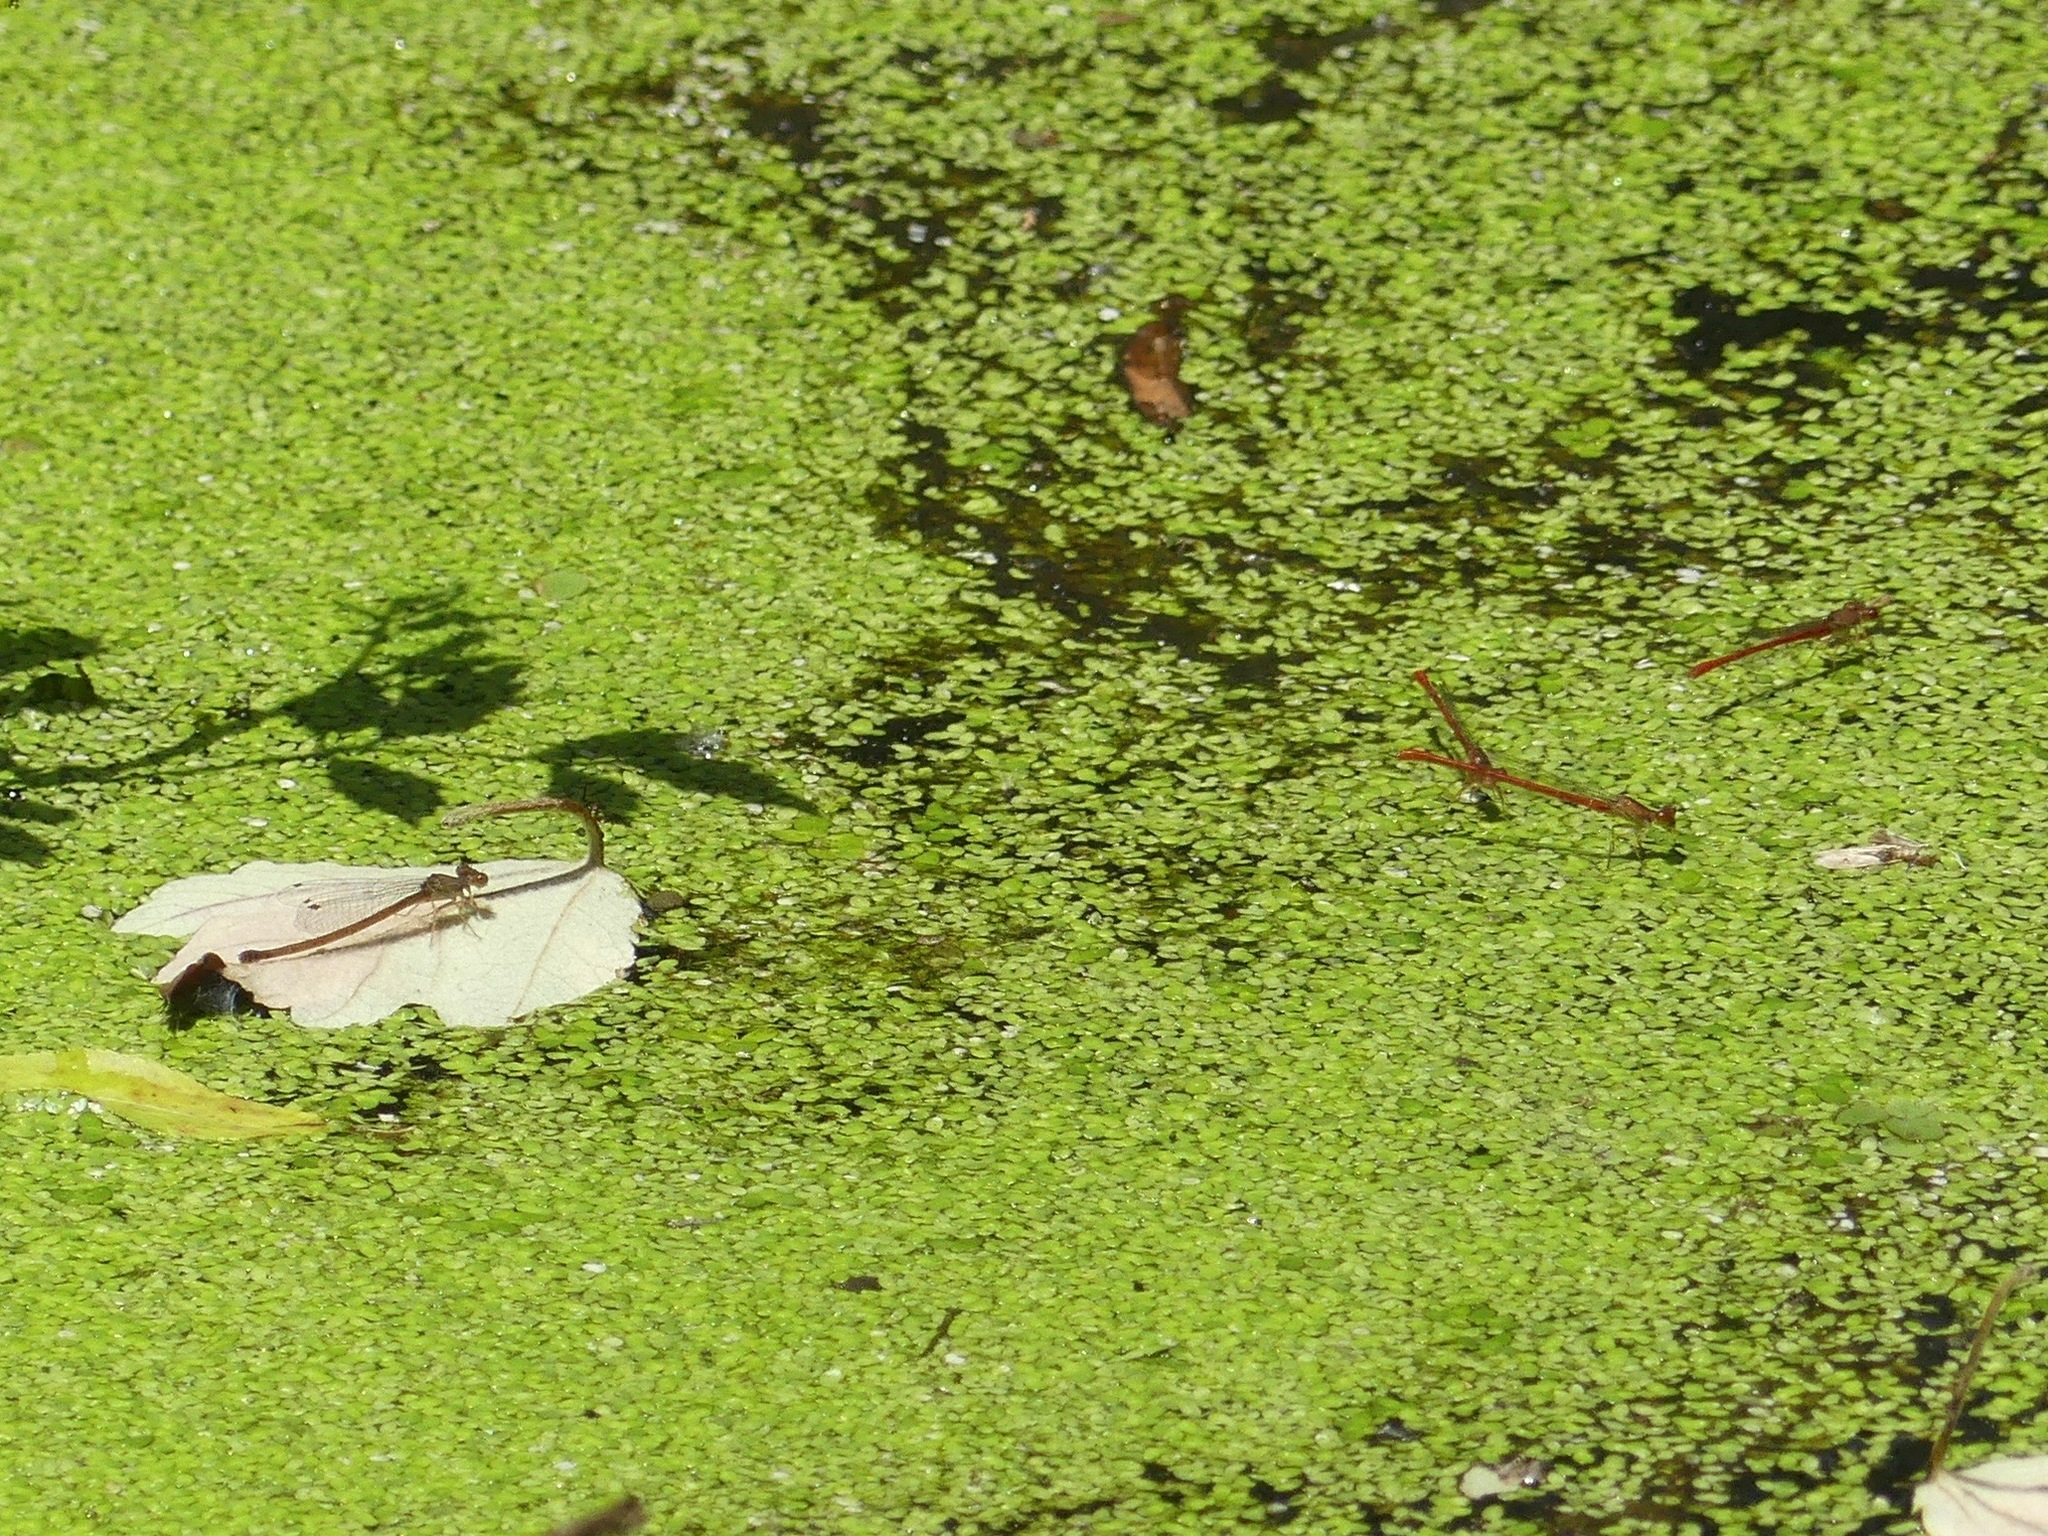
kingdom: Animalia
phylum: Arthropoda
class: Insecta
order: Odonata
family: Coenagrionidae
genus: Telebasis
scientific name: Telebasis byersi
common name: Duckweed firetail
